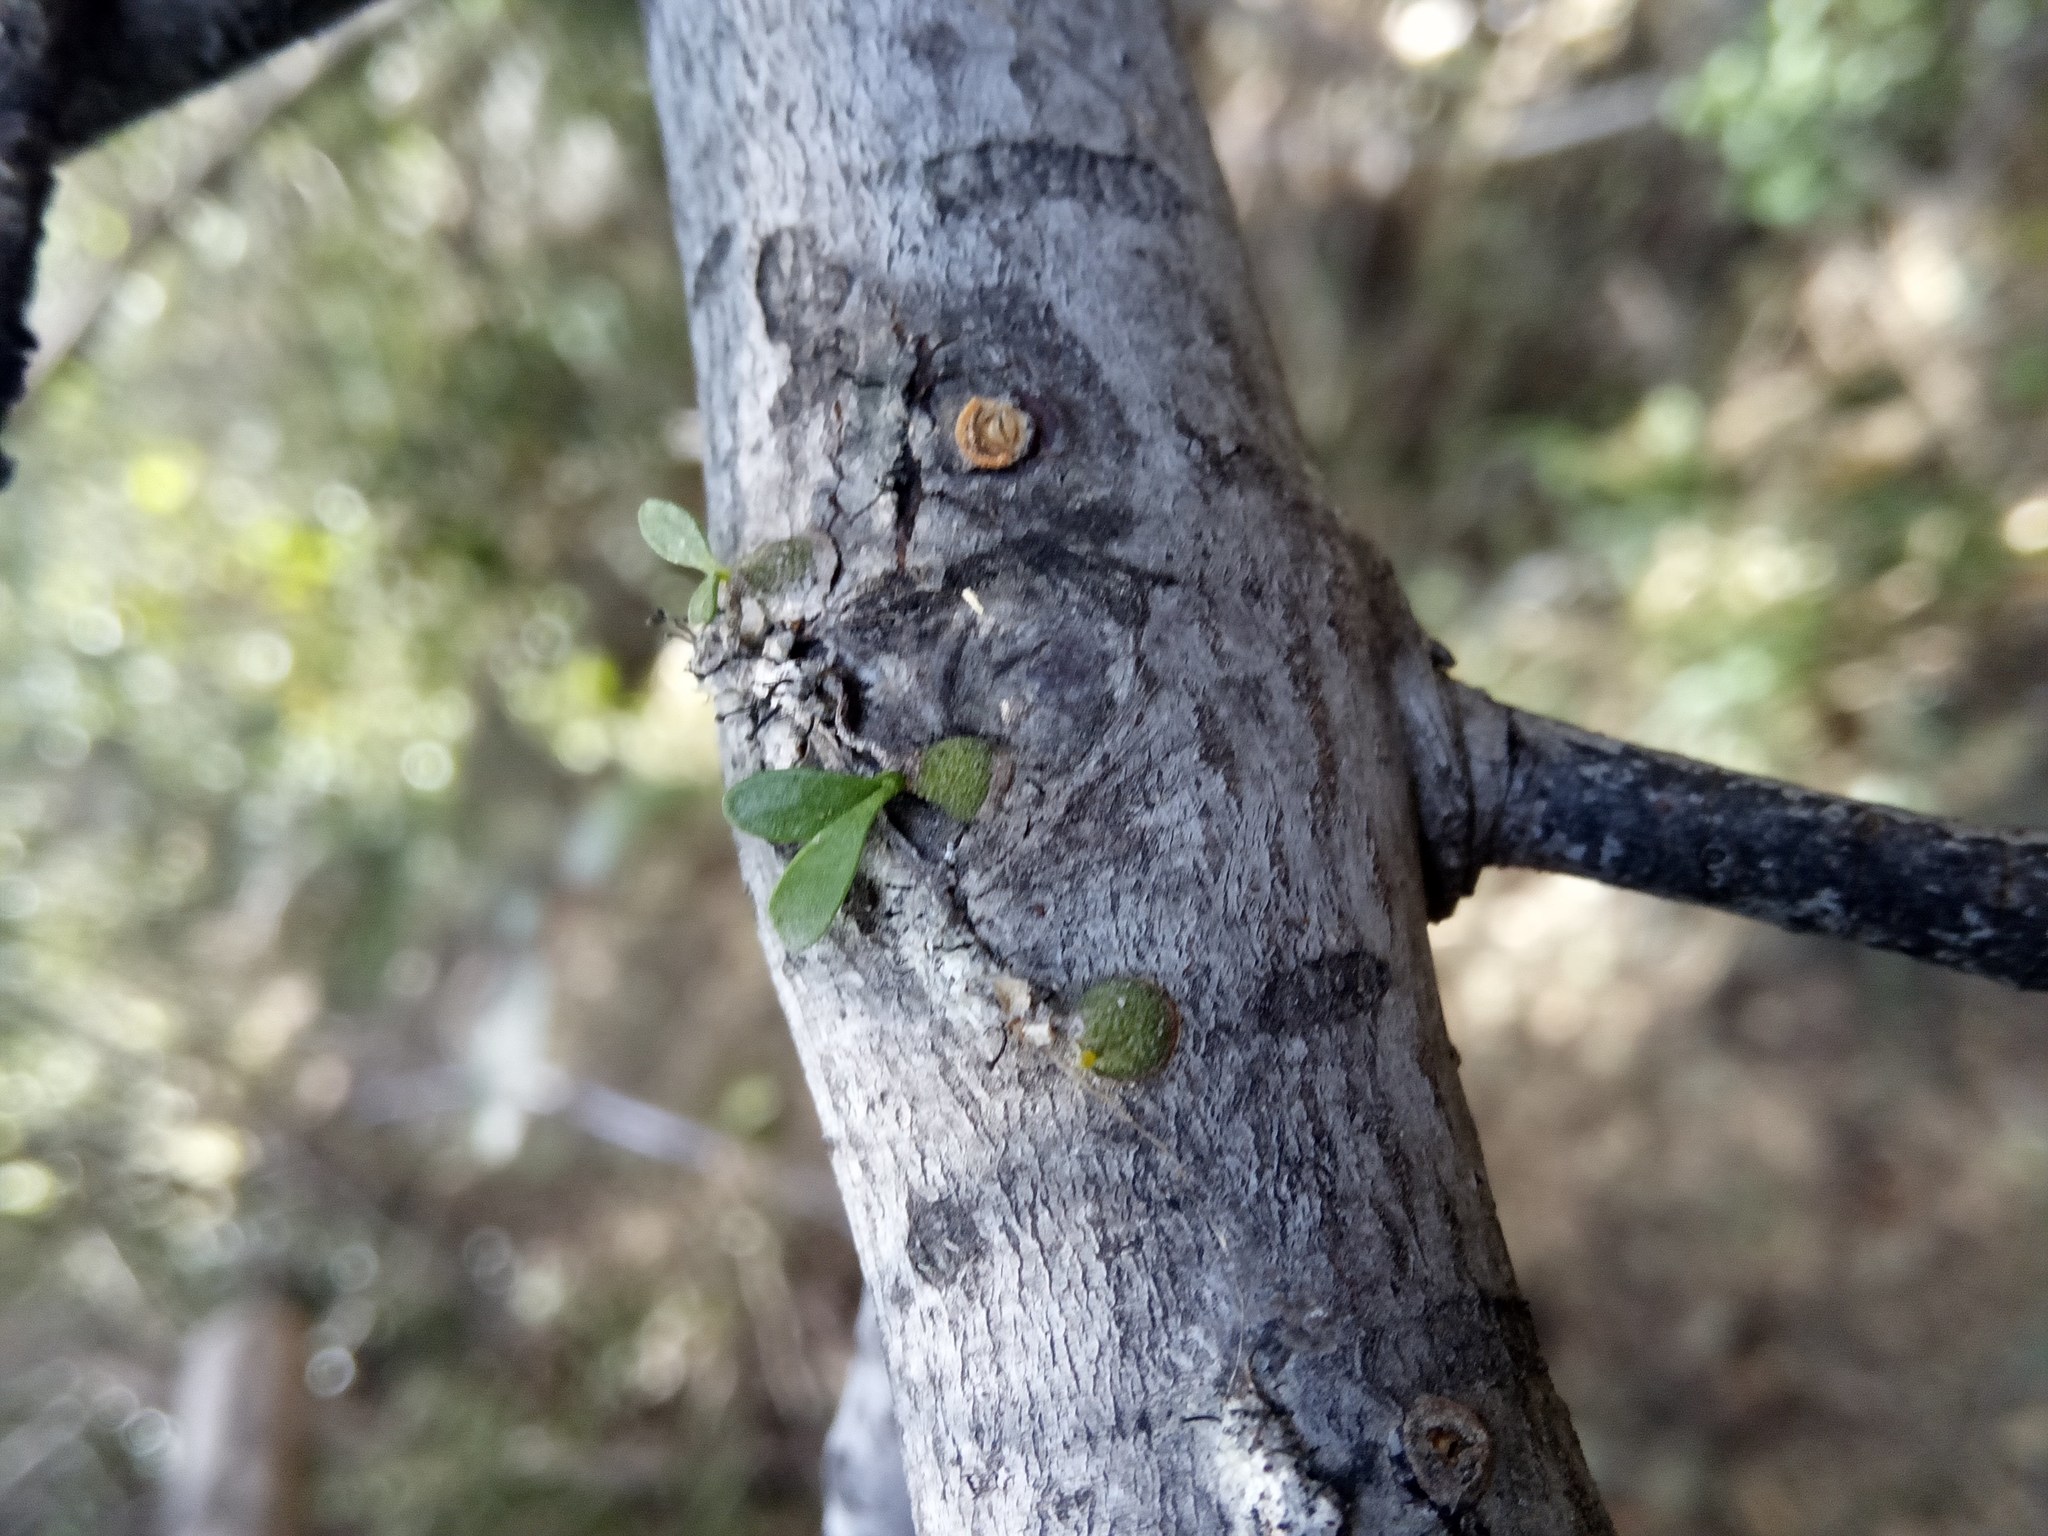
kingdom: Plantae
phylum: Tracheophyta
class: Magnoliopsida
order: Santalales
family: Loranthaceae
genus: Tristerix
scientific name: Tristerix corymbosus
